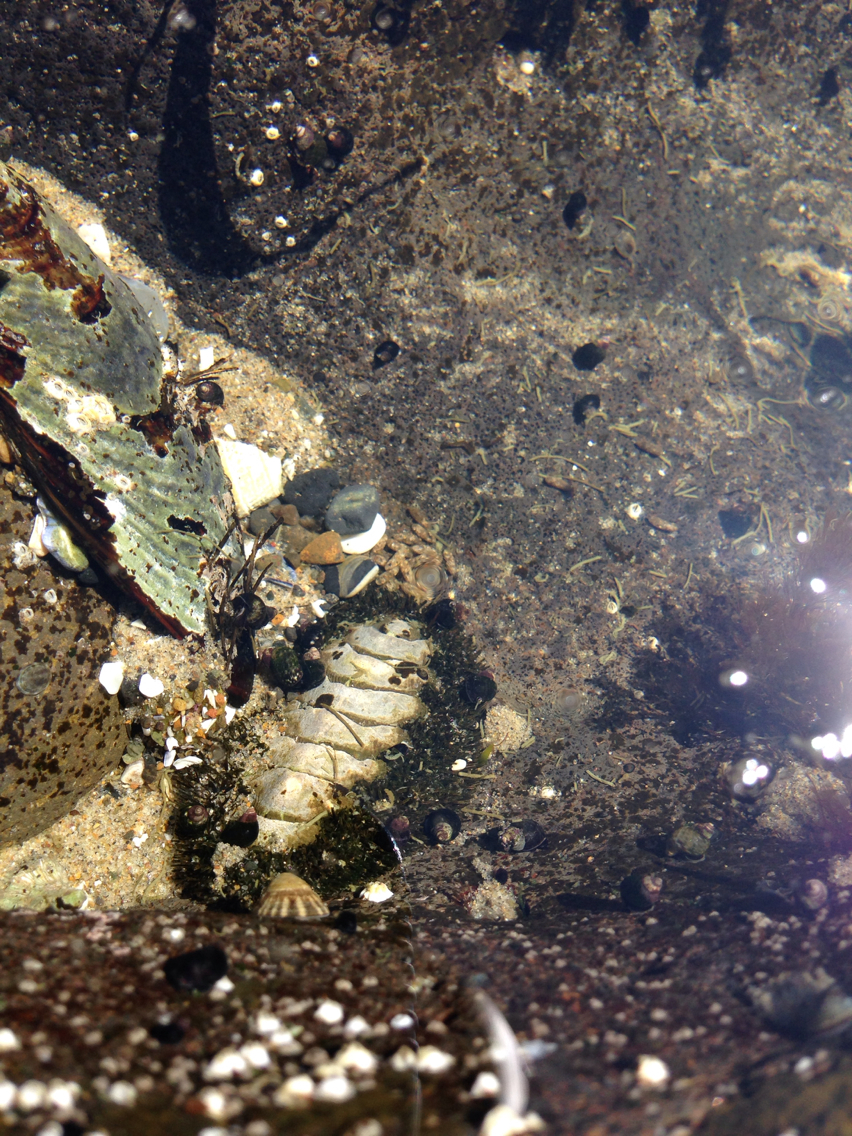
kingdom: Animalia
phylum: Mollusca
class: Polyplacophora
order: Chitonida
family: Mopaliidae
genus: Mopalia
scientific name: Mopalia muscosa
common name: Mossy chiton
